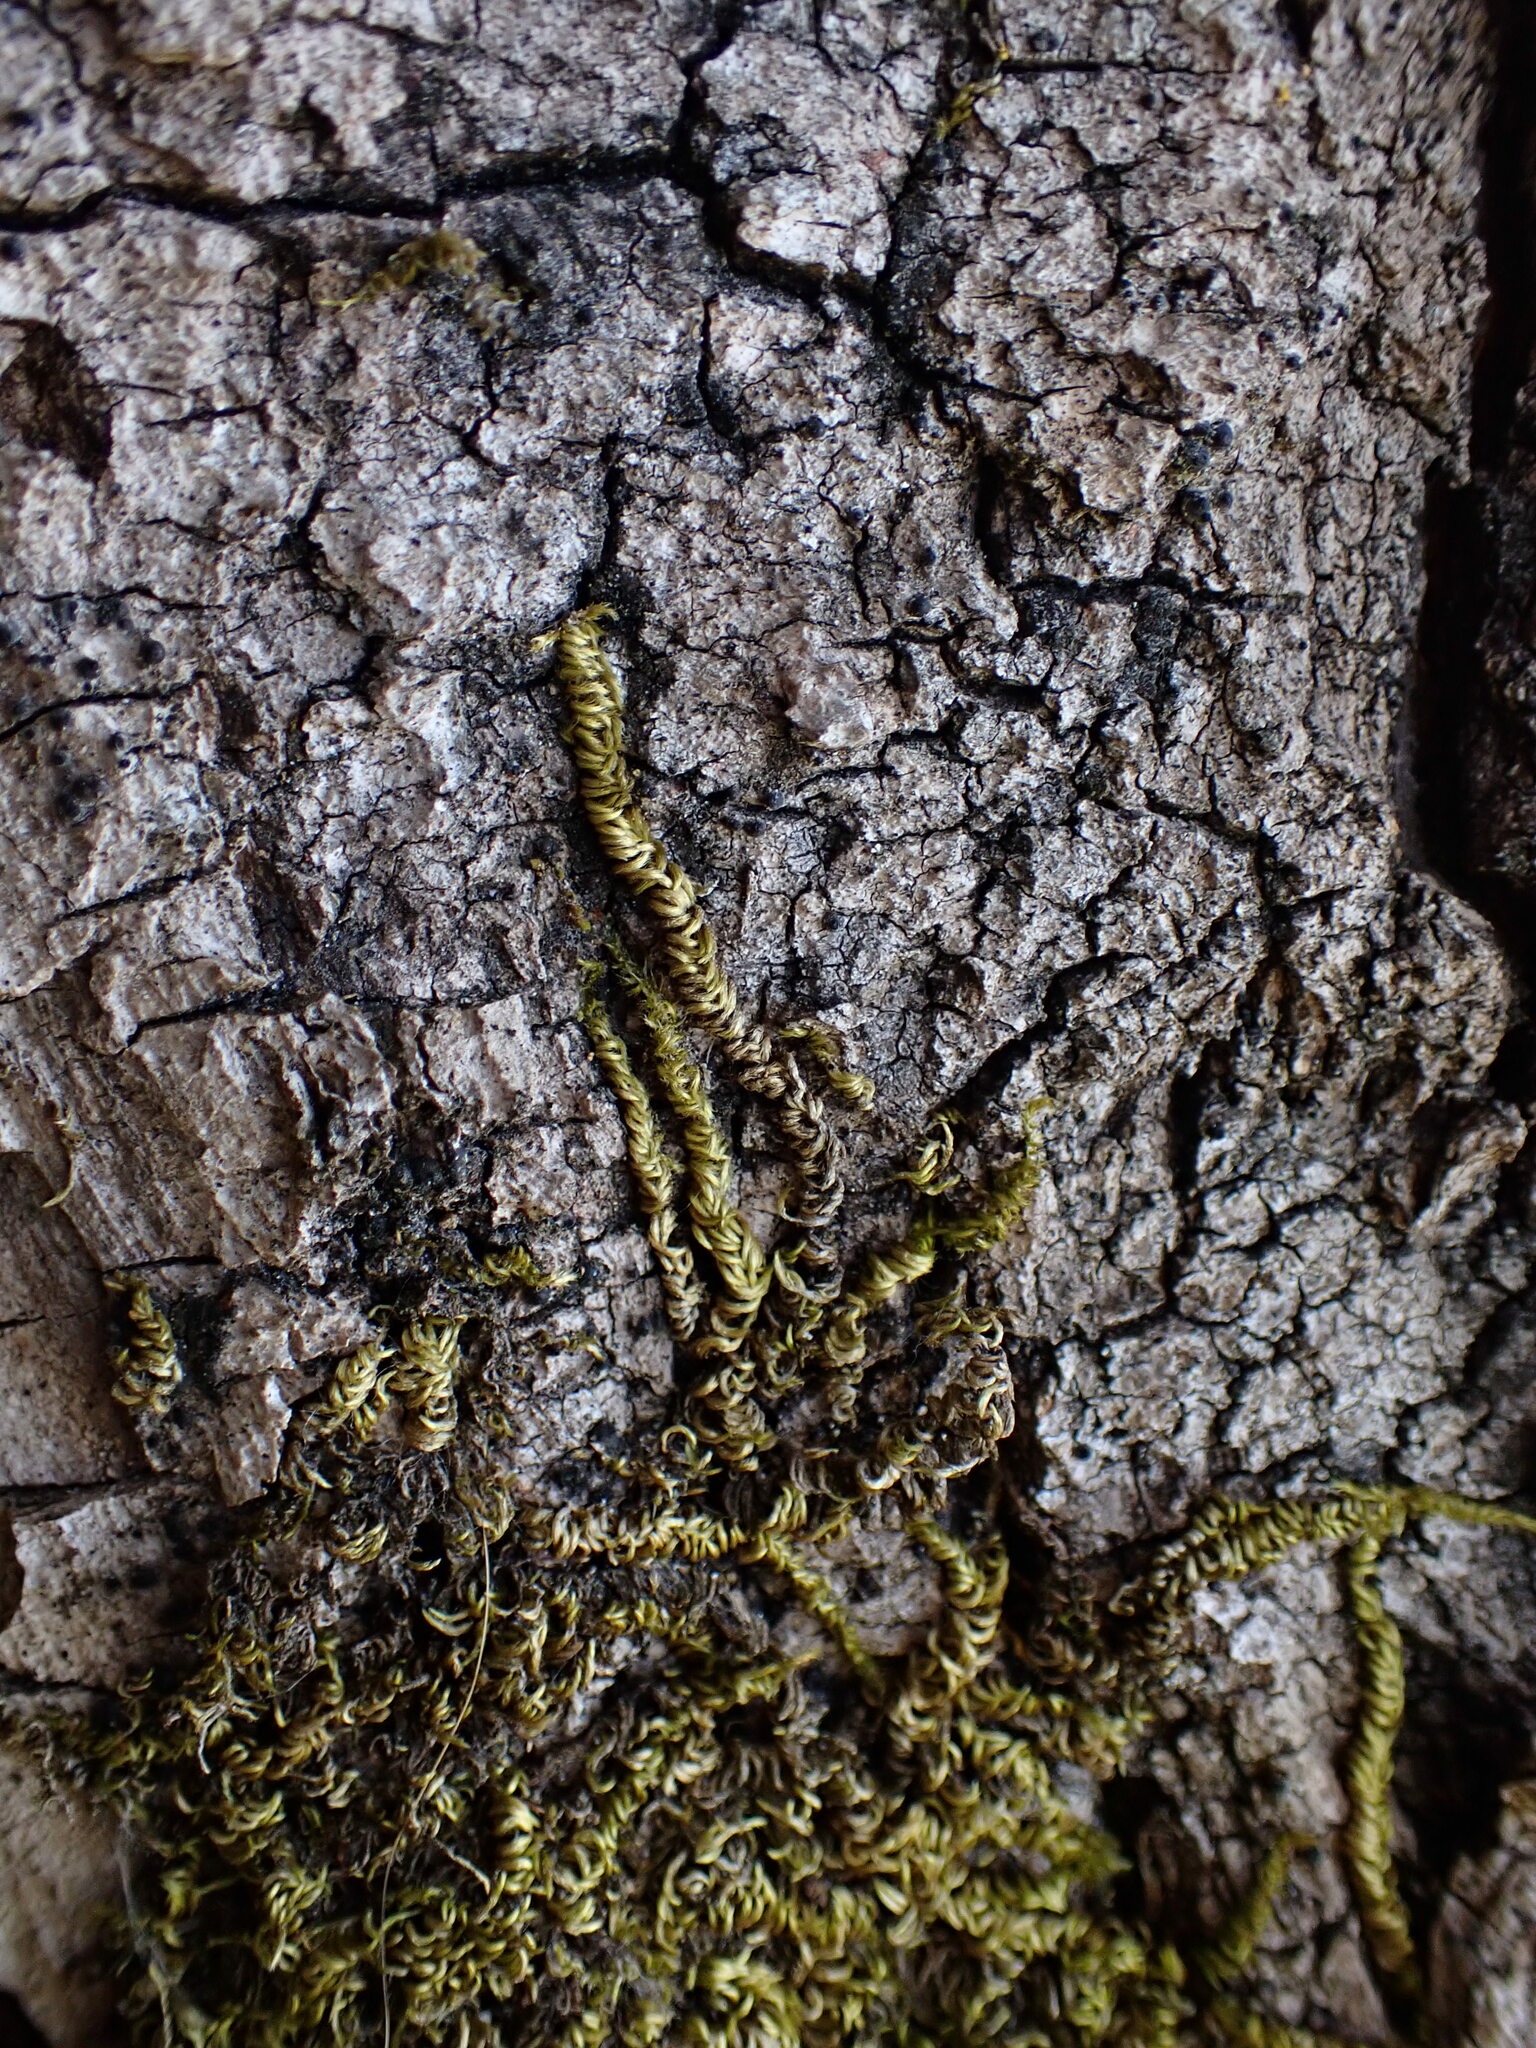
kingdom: Plantae
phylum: Bryophyta
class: Bryopsida
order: Hypnales
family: Brachytheciaceae
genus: Homalothecium
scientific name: Homalothecium nuttallii
